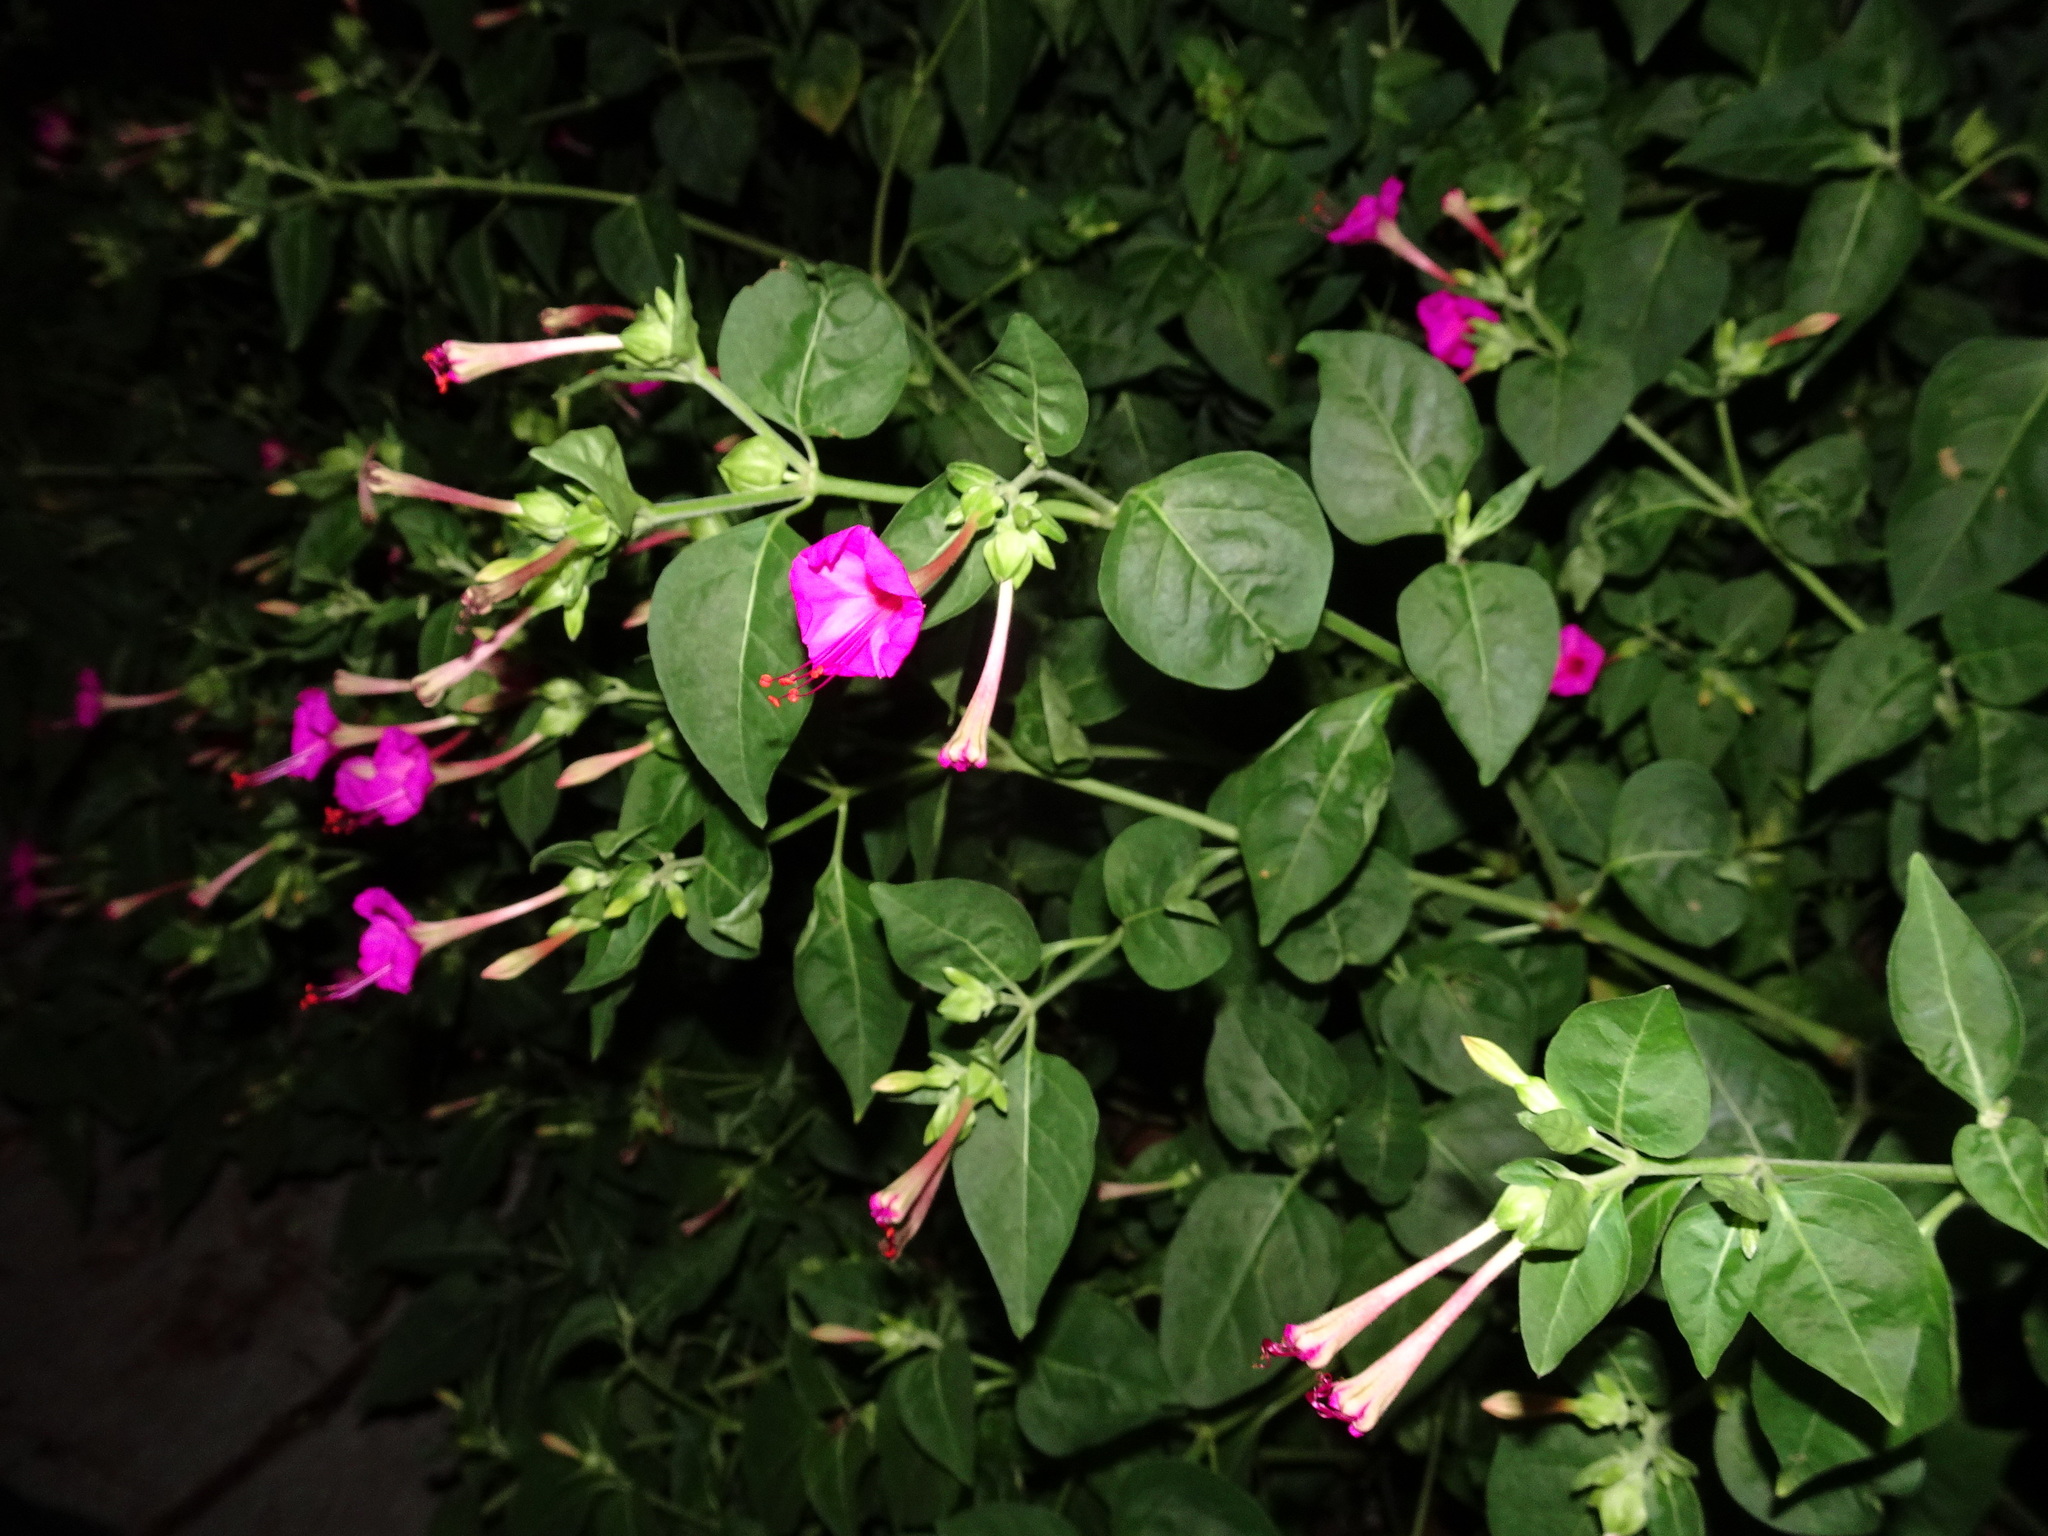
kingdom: Plantae
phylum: Tracheophyta
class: Magnoliopsida
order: Caryophyllales
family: Nyctaginaceae
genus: Mirabilis
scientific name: Mirabilis jalapa
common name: Marvel-of-peru
